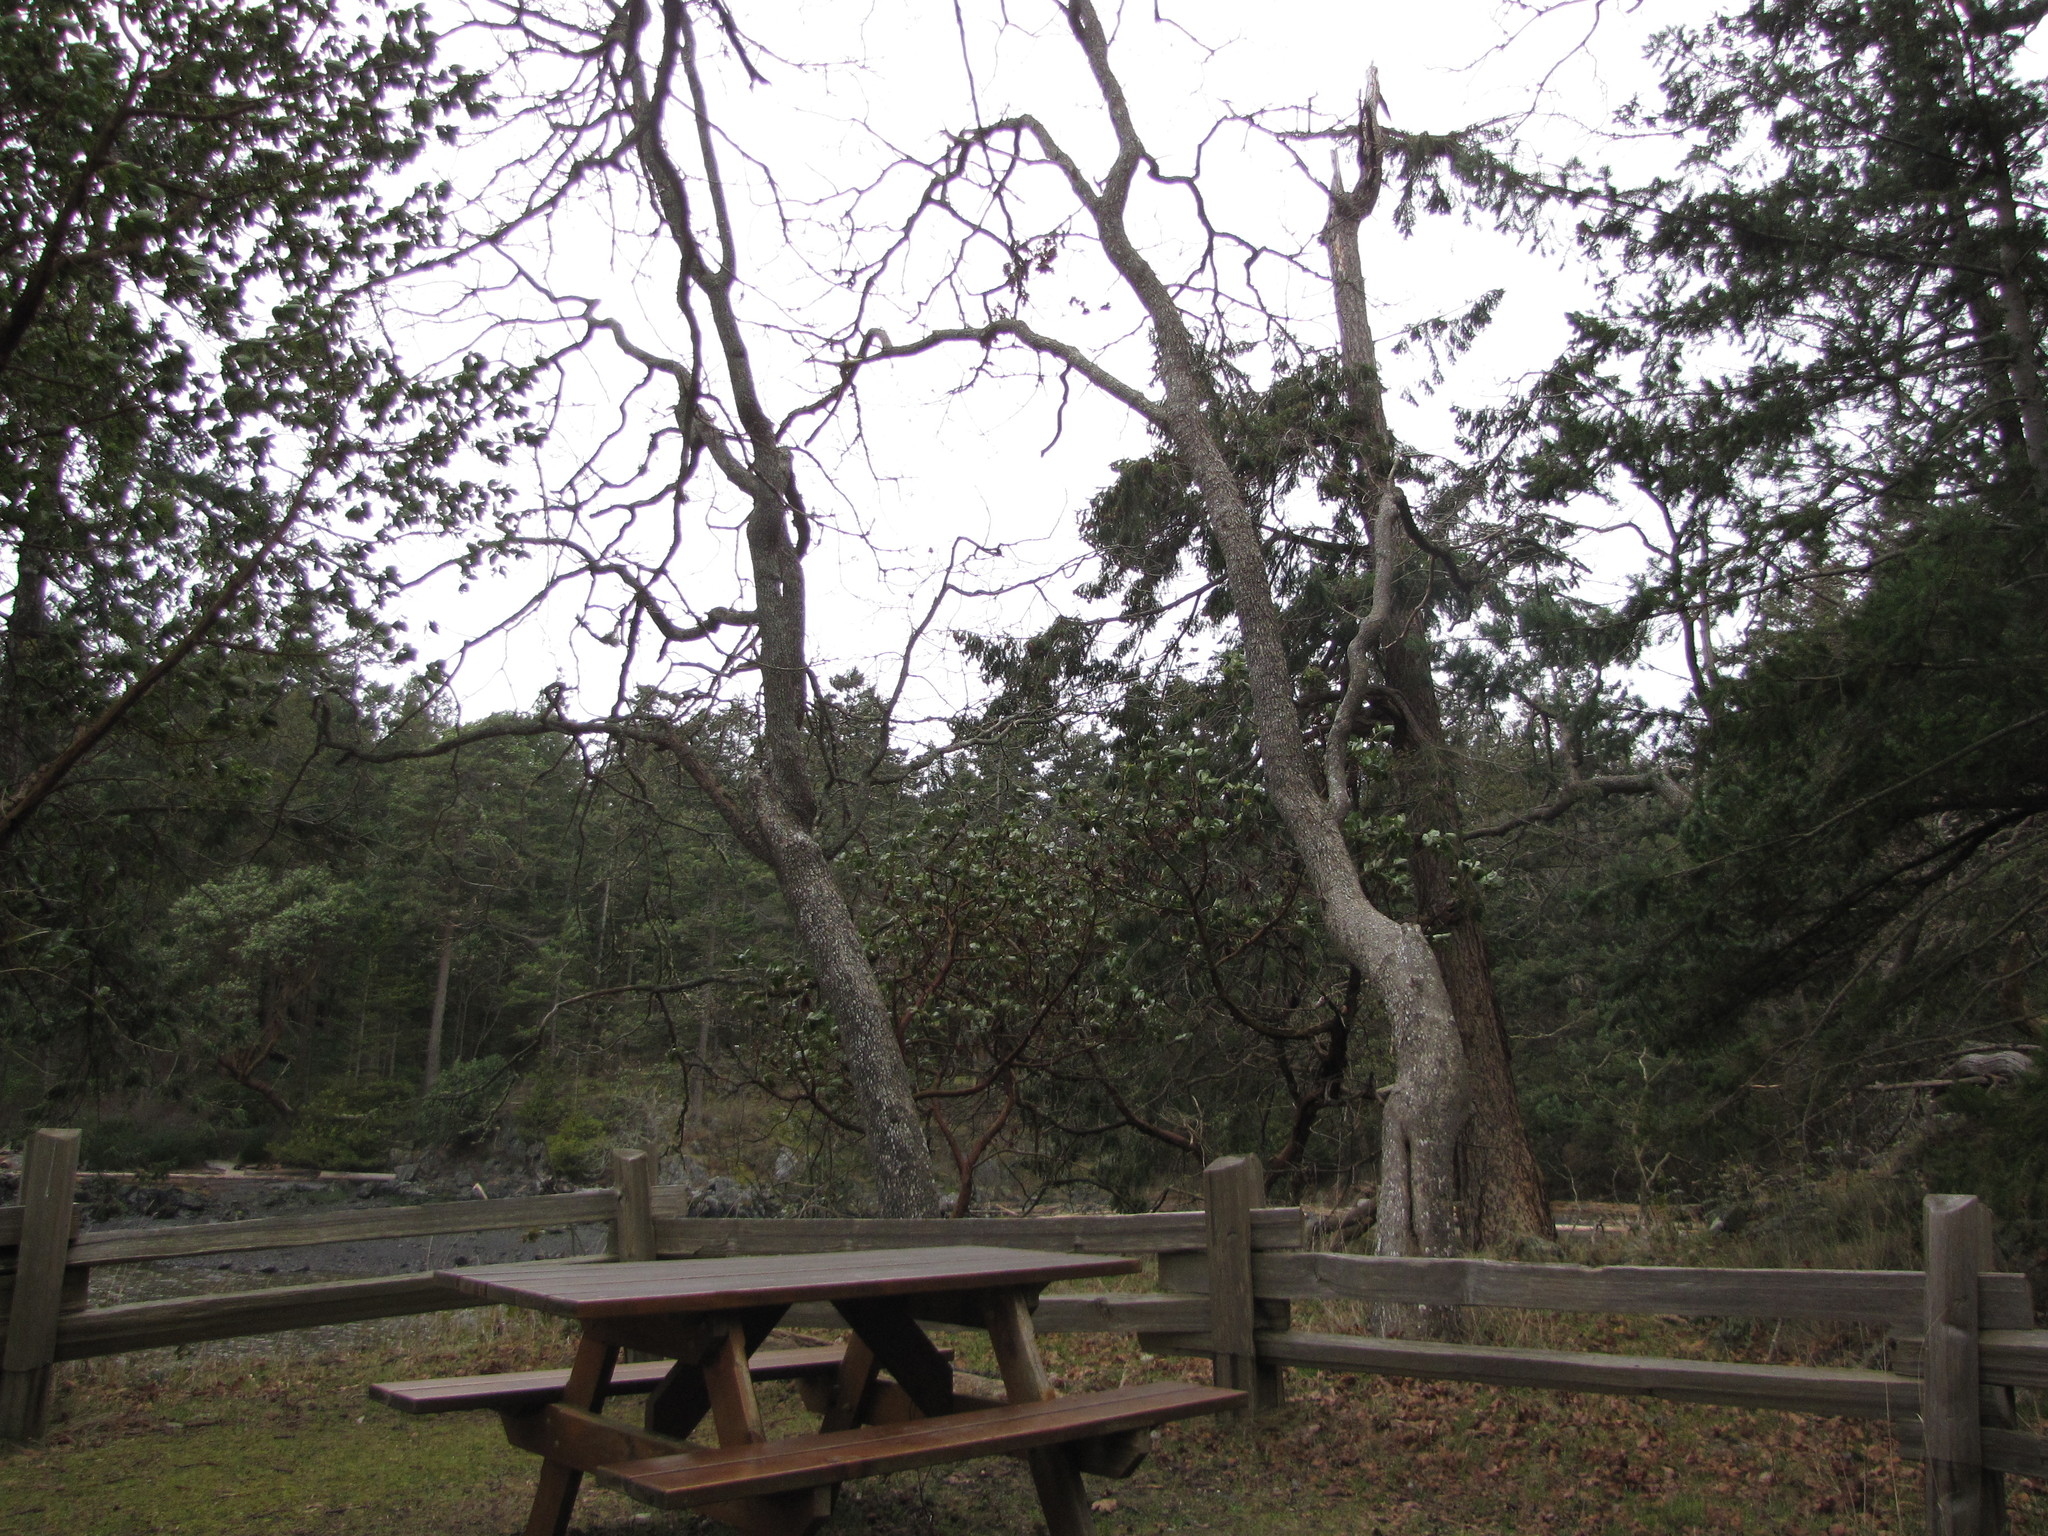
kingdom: Plantae
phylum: Tracheophyta
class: Magnoliopsida
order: Fagales
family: Fagaceae
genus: Quercus
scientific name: Quercus garryana
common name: Garry oak
